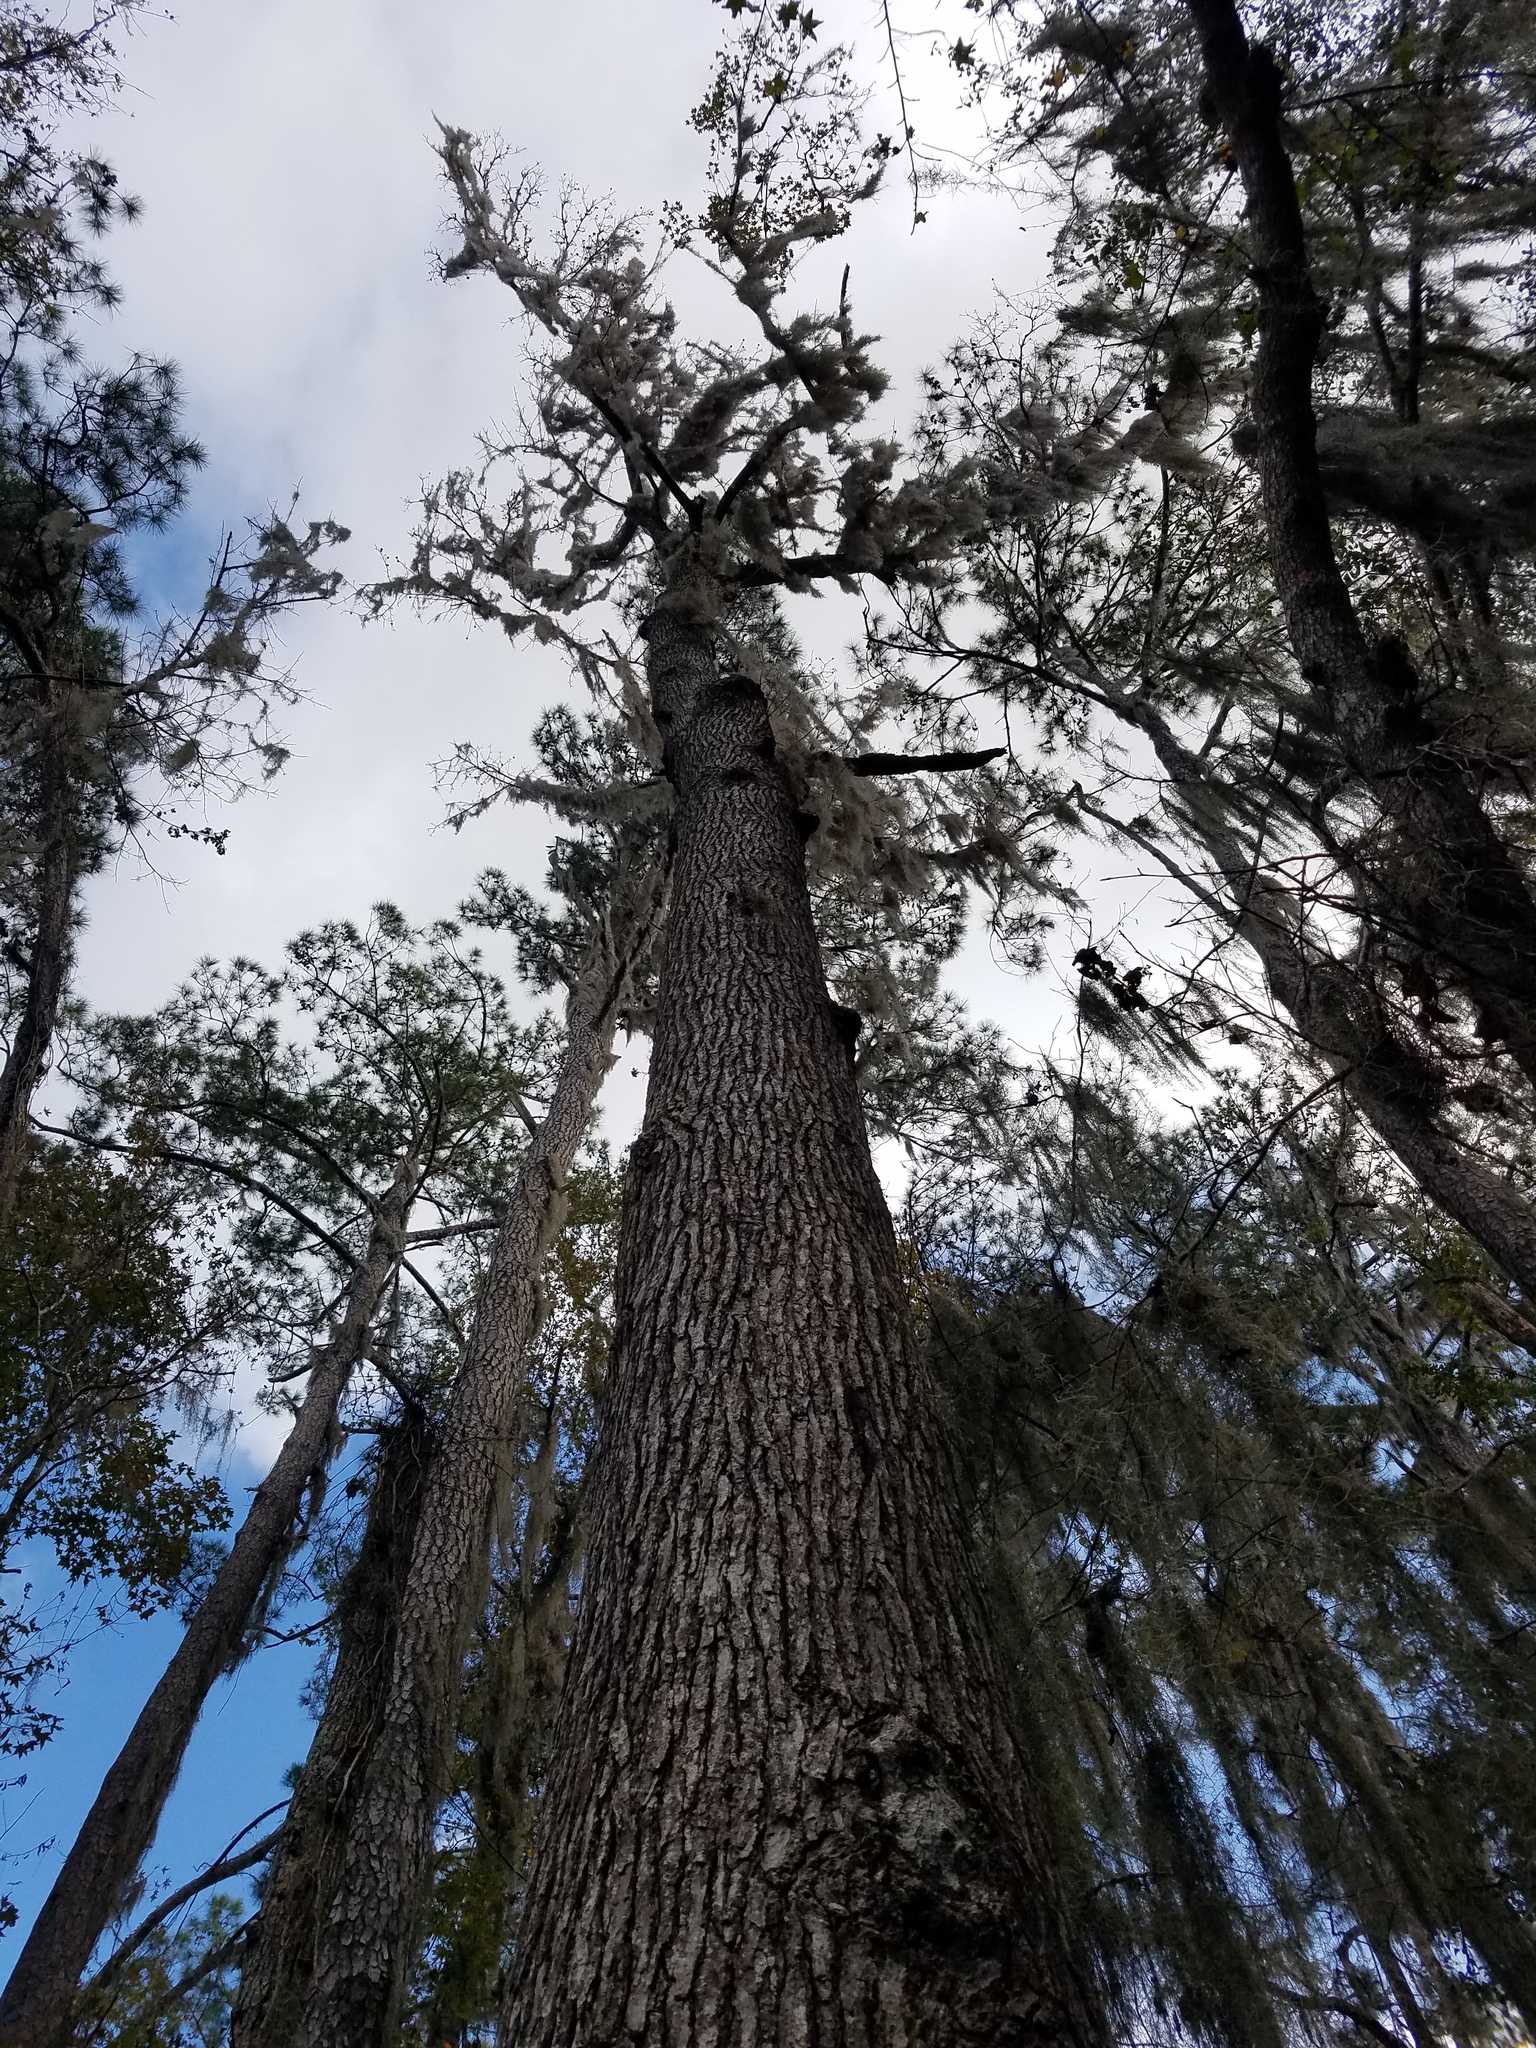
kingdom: Plantae
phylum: Tracheophyta
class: Magnoliopsida
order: Saxifragales
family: Altingiaceae
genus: Liquidambar
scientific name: Liquidambar styraciflua
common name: Sweet gum
